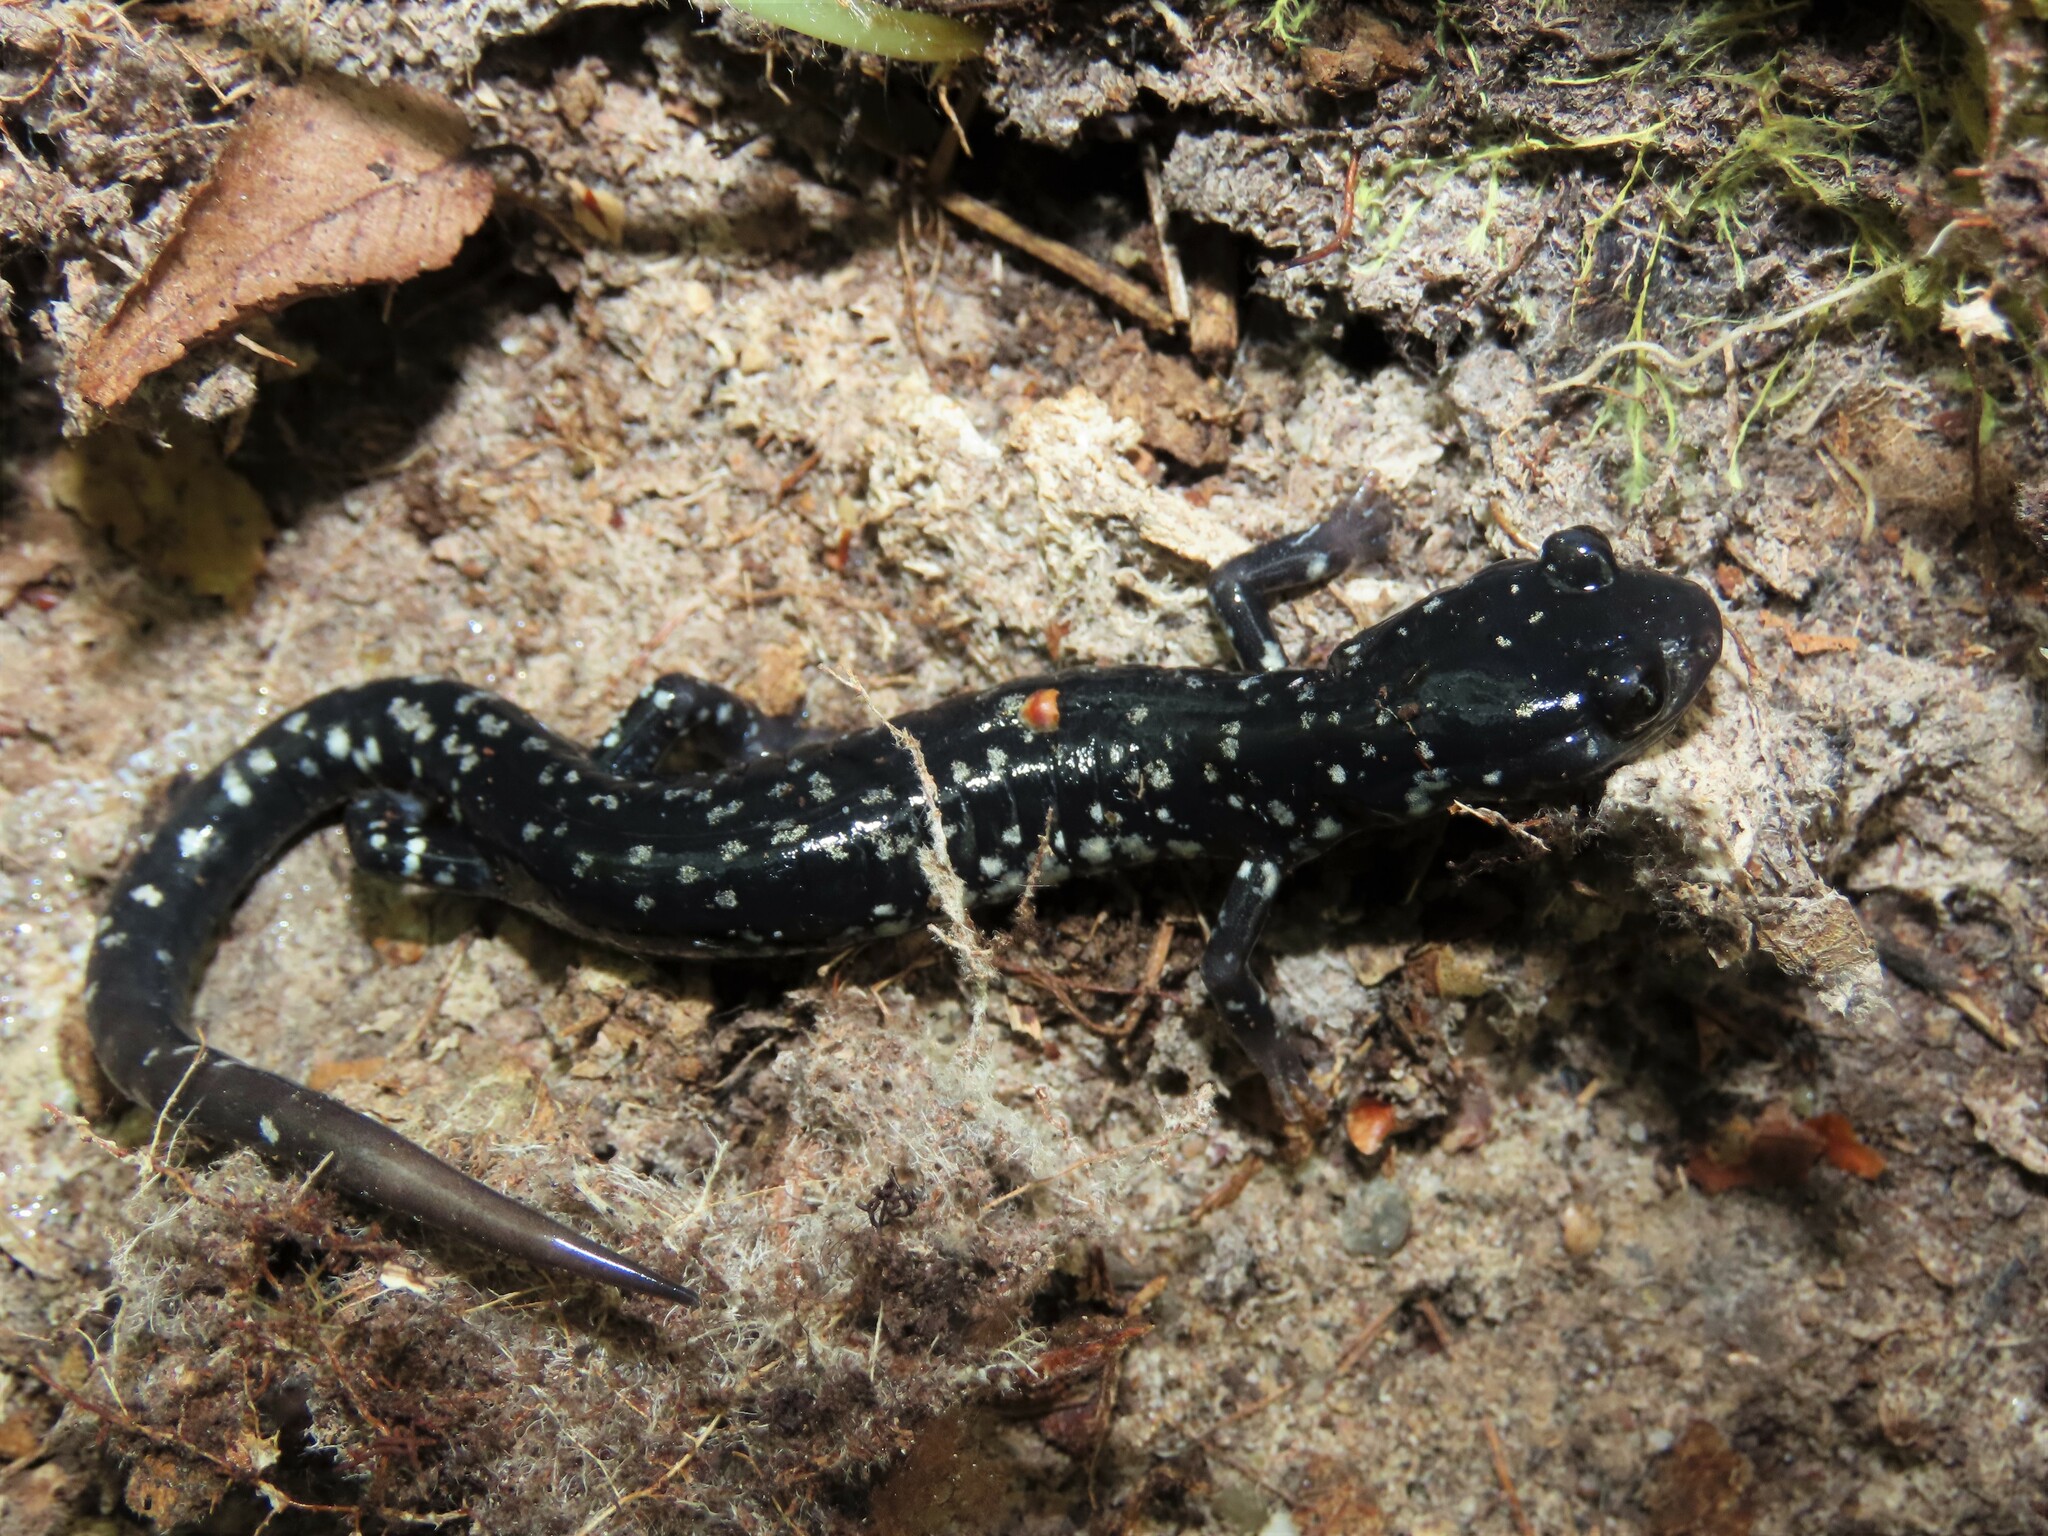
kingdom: Animalia
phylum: Chordata
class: Amphibia
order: Caudata
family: Plethodontidae
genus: Plethodon
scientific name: Plethodon glutinosus
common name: Northern slimy salamander
